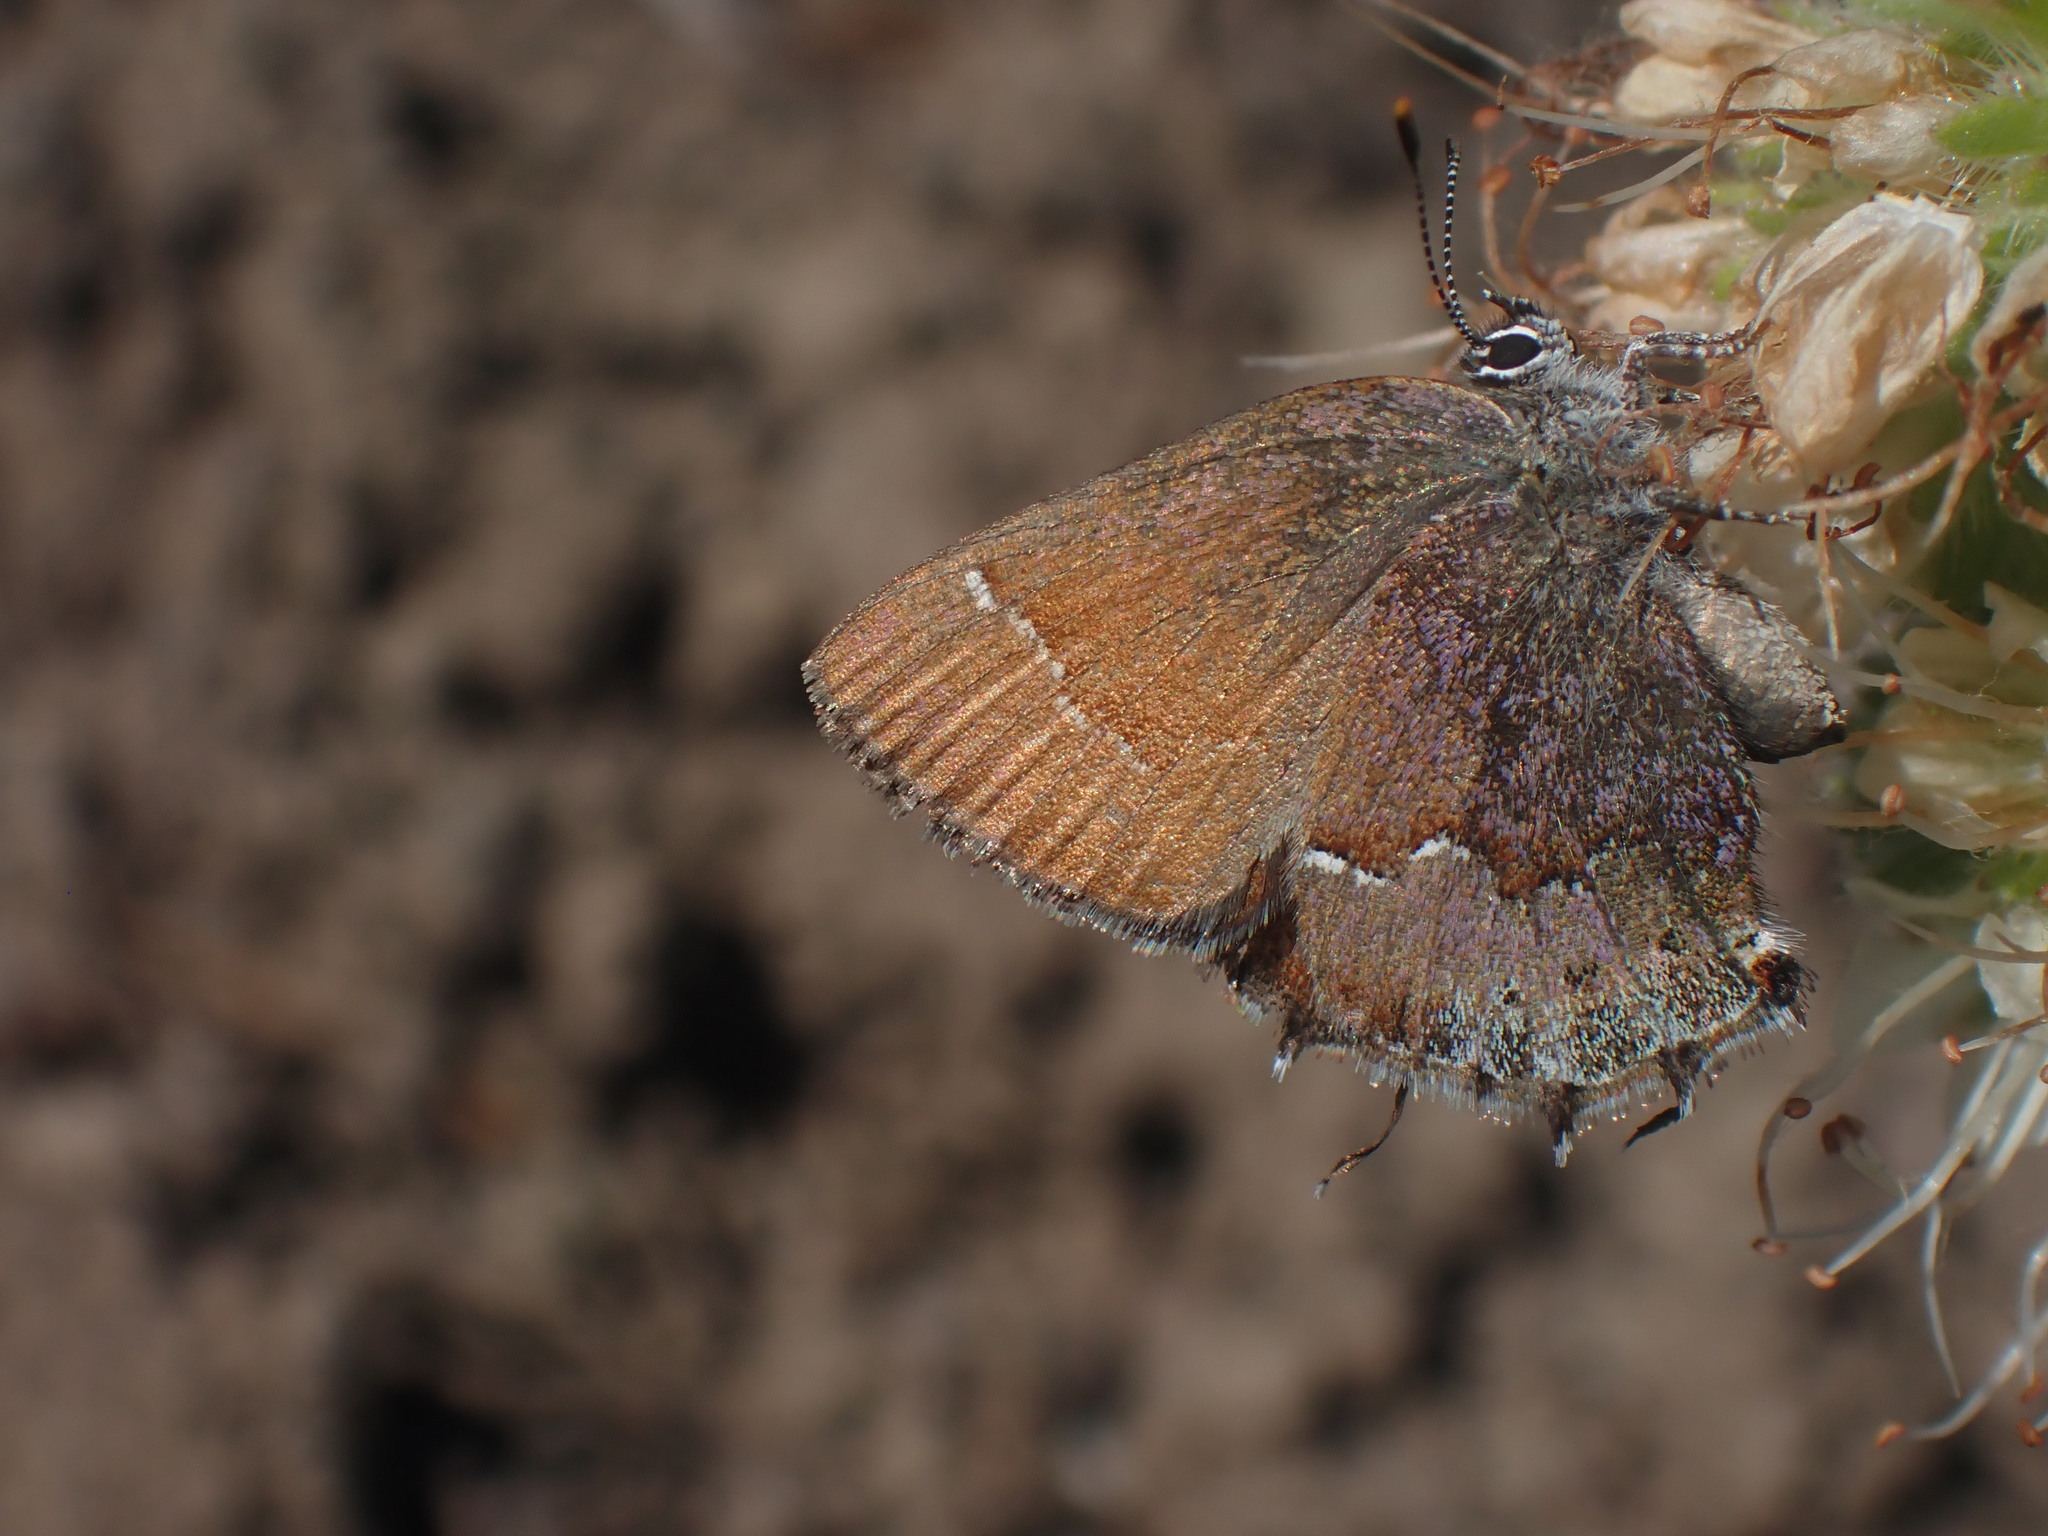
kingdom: Animalia
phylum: Arthropoda
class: Insecta
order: Lepidoptera
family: Lycaenidae
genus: Mitoura
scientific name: Mitoura gryneus
